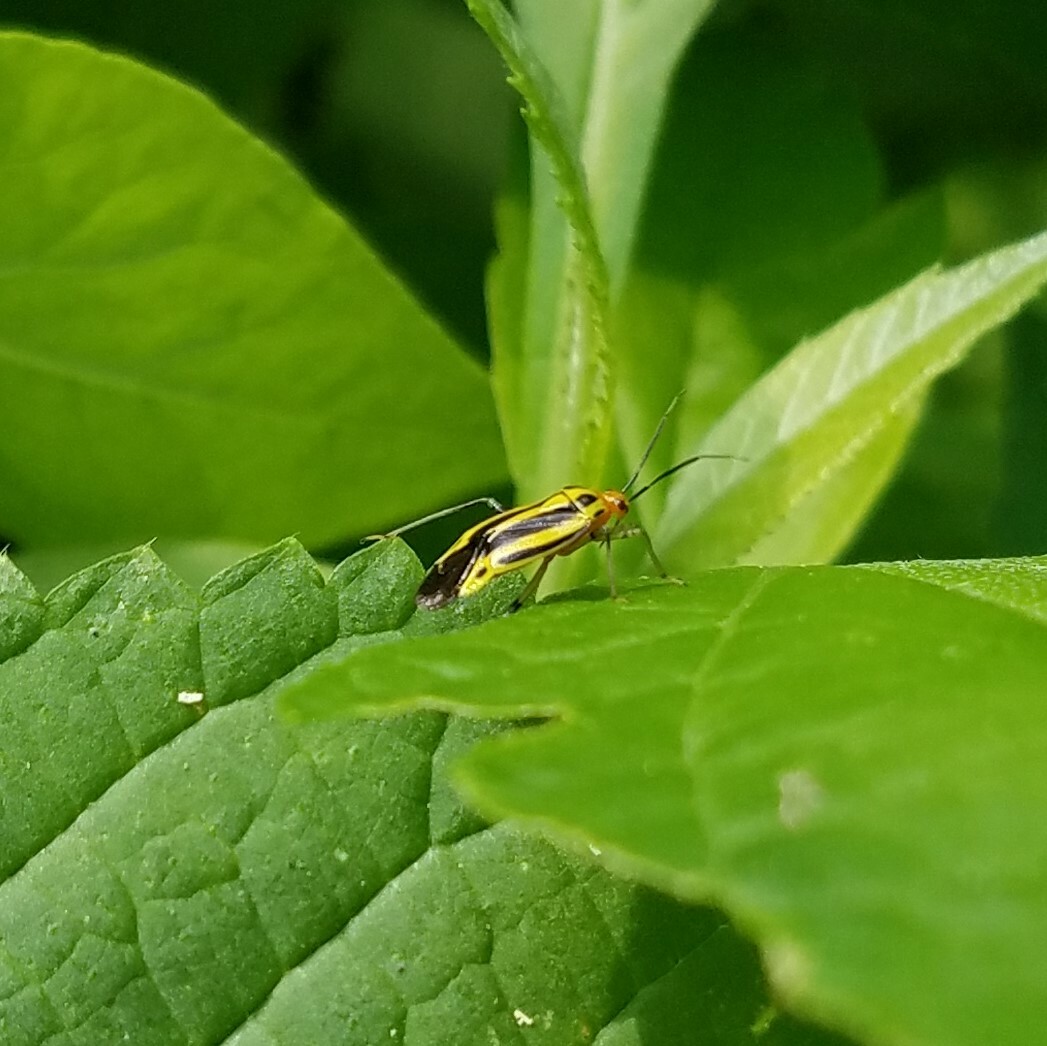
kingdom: Animalia
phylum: Arthropoda
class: Insecta
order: Hemiptera
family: Miridae
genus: Poecilocapsus
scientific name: Poecilocapsus lineatus
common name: Four-lined plant bug
